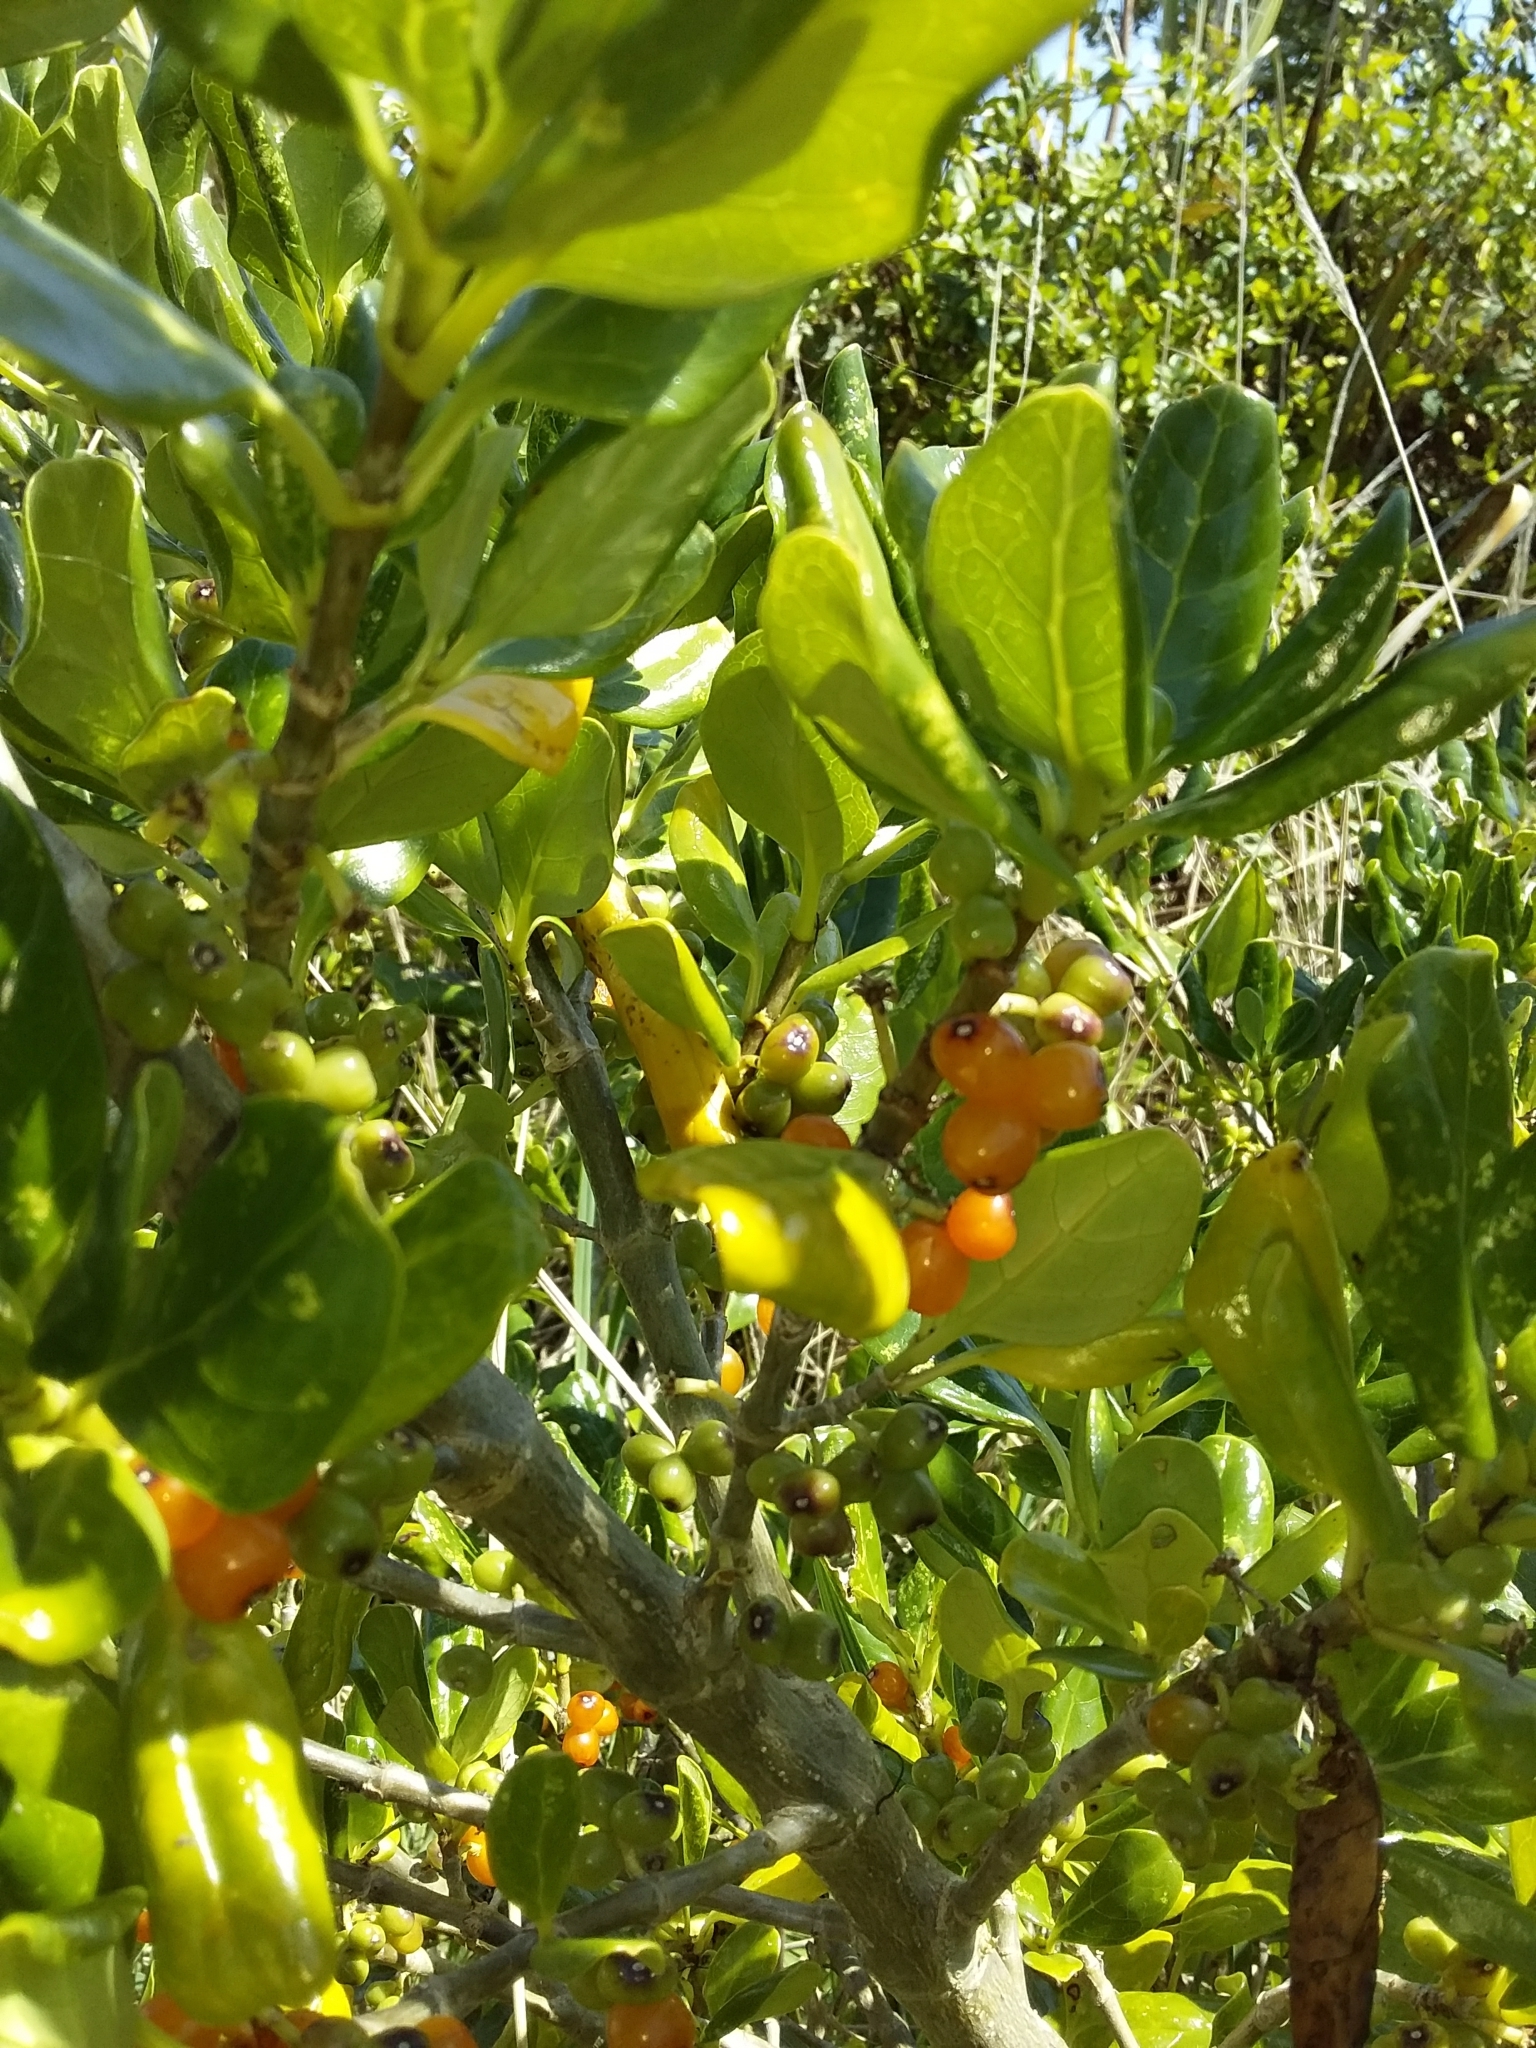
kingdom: Plantae
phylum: Tracheophyta
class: Magnoliopsida
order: Gentianales
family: Rubiaceae
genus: Coprosma
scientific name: Coprosma repens
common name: Tree bedstraw
